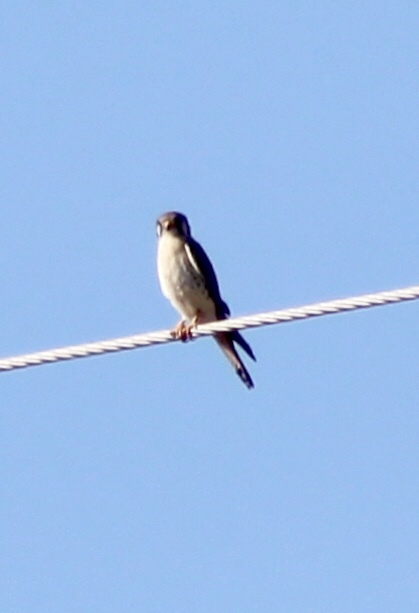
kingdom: Animalia
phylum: Chordata
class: Aves
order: Falconiformes
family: Falconidae
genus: Falco
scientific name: Falco sparverius
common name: American kestrel
